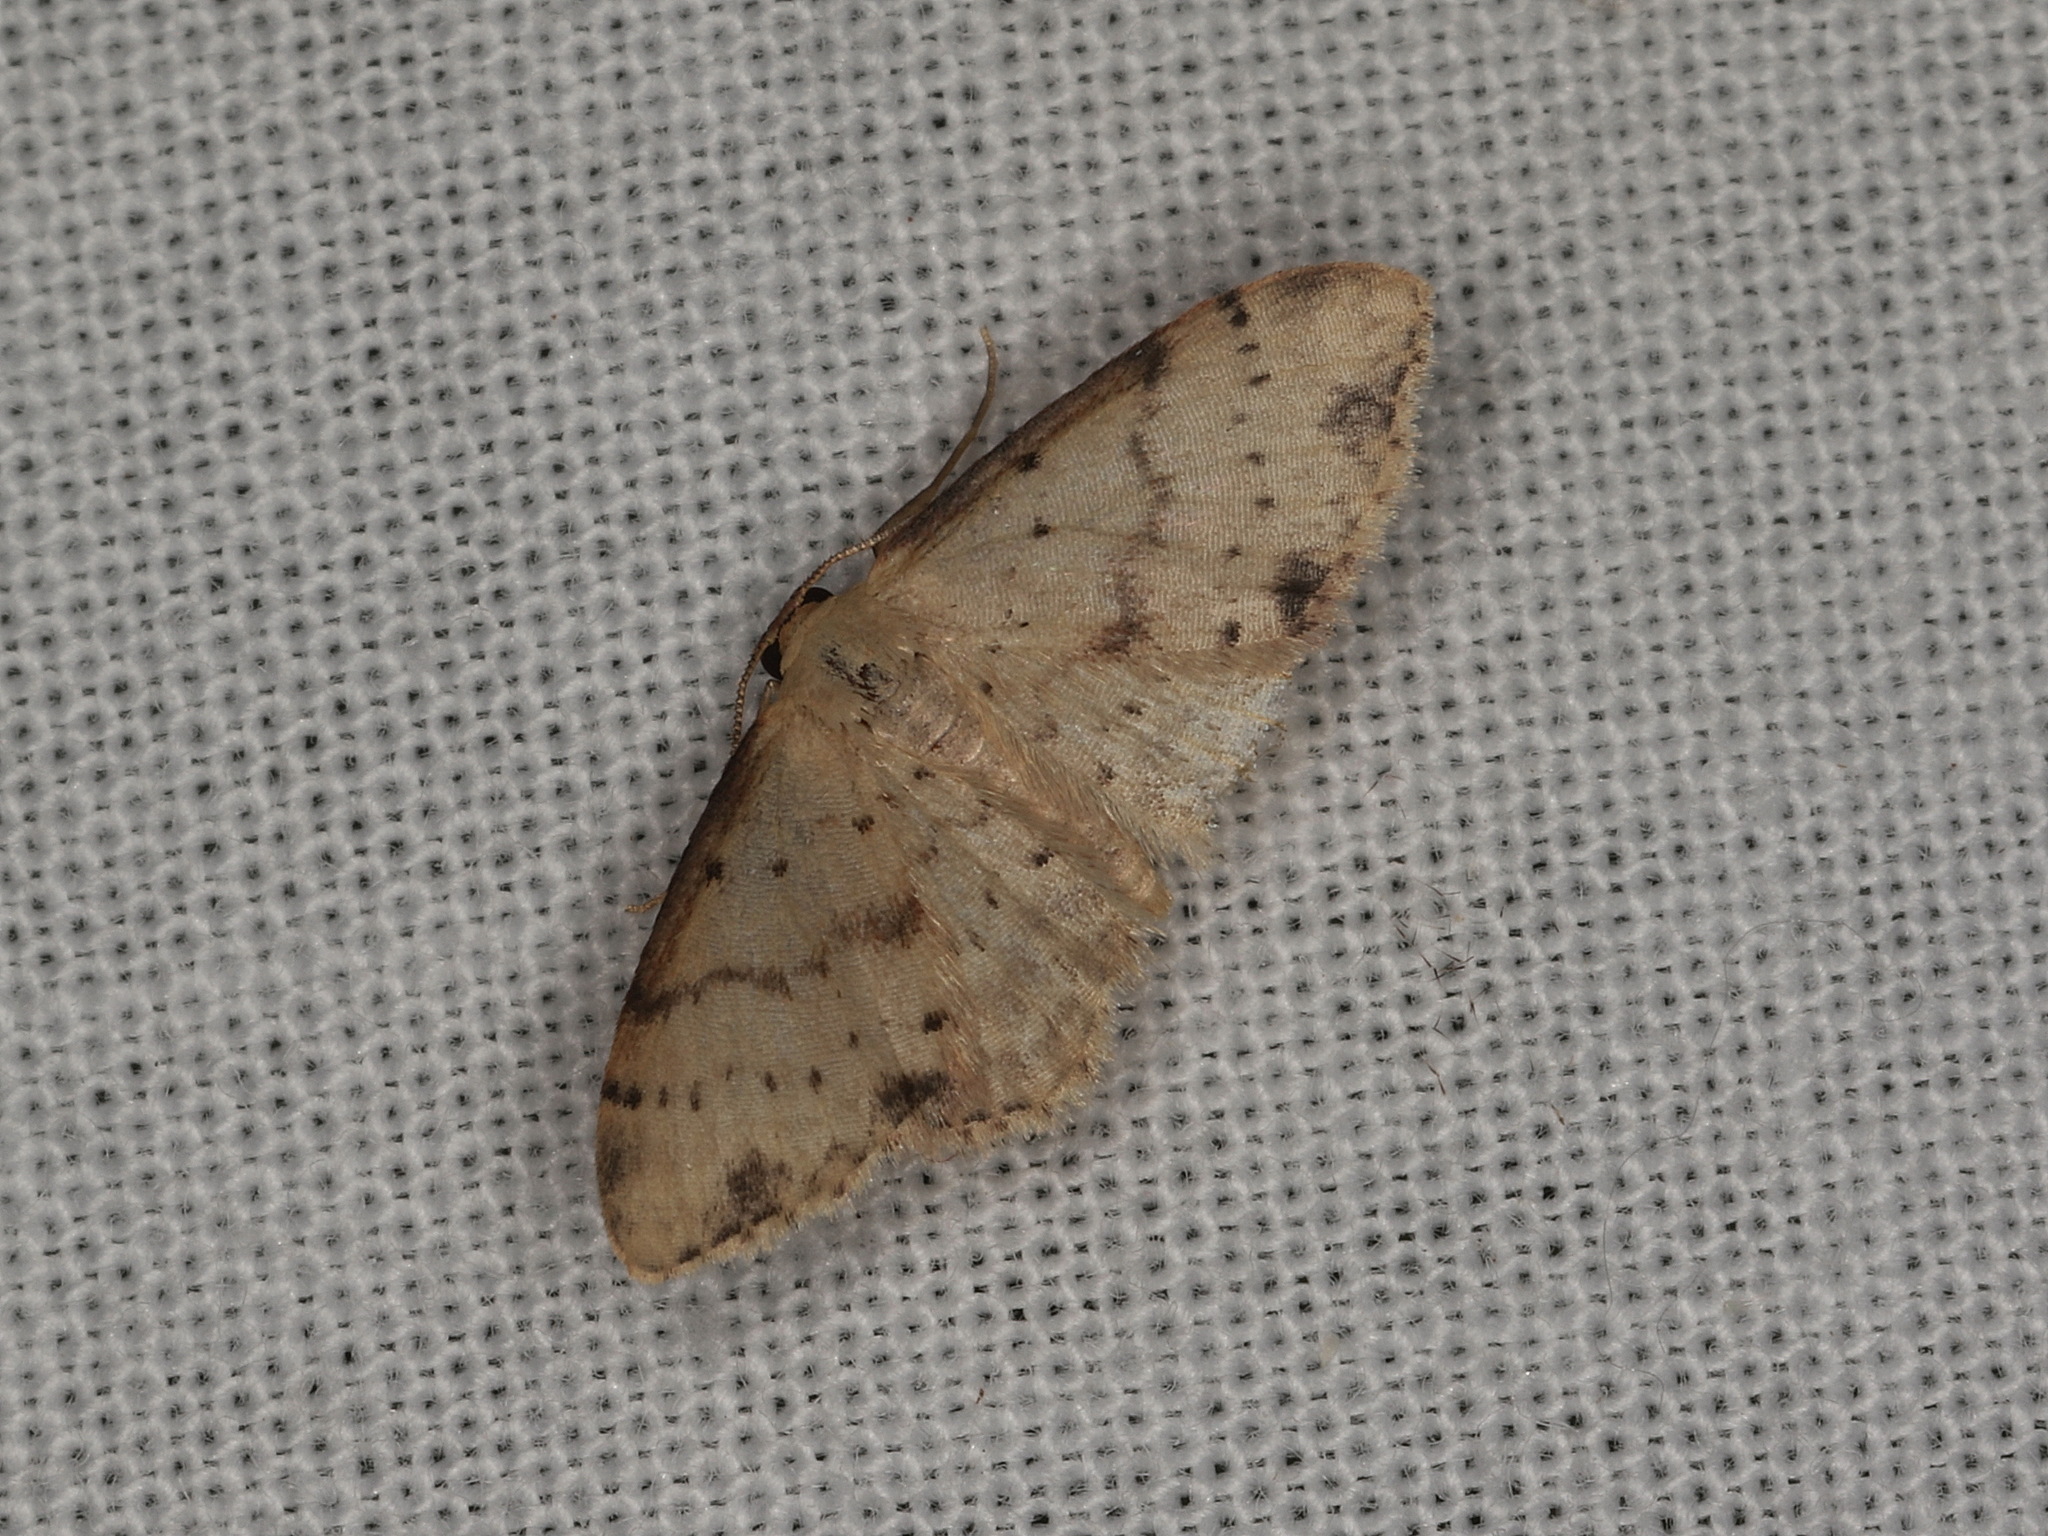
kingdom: Animalia
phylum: Arthropoda
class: Insecta
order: Lepidoptera
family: Geometridae
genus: Idaea
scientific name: Idaea halmaea
